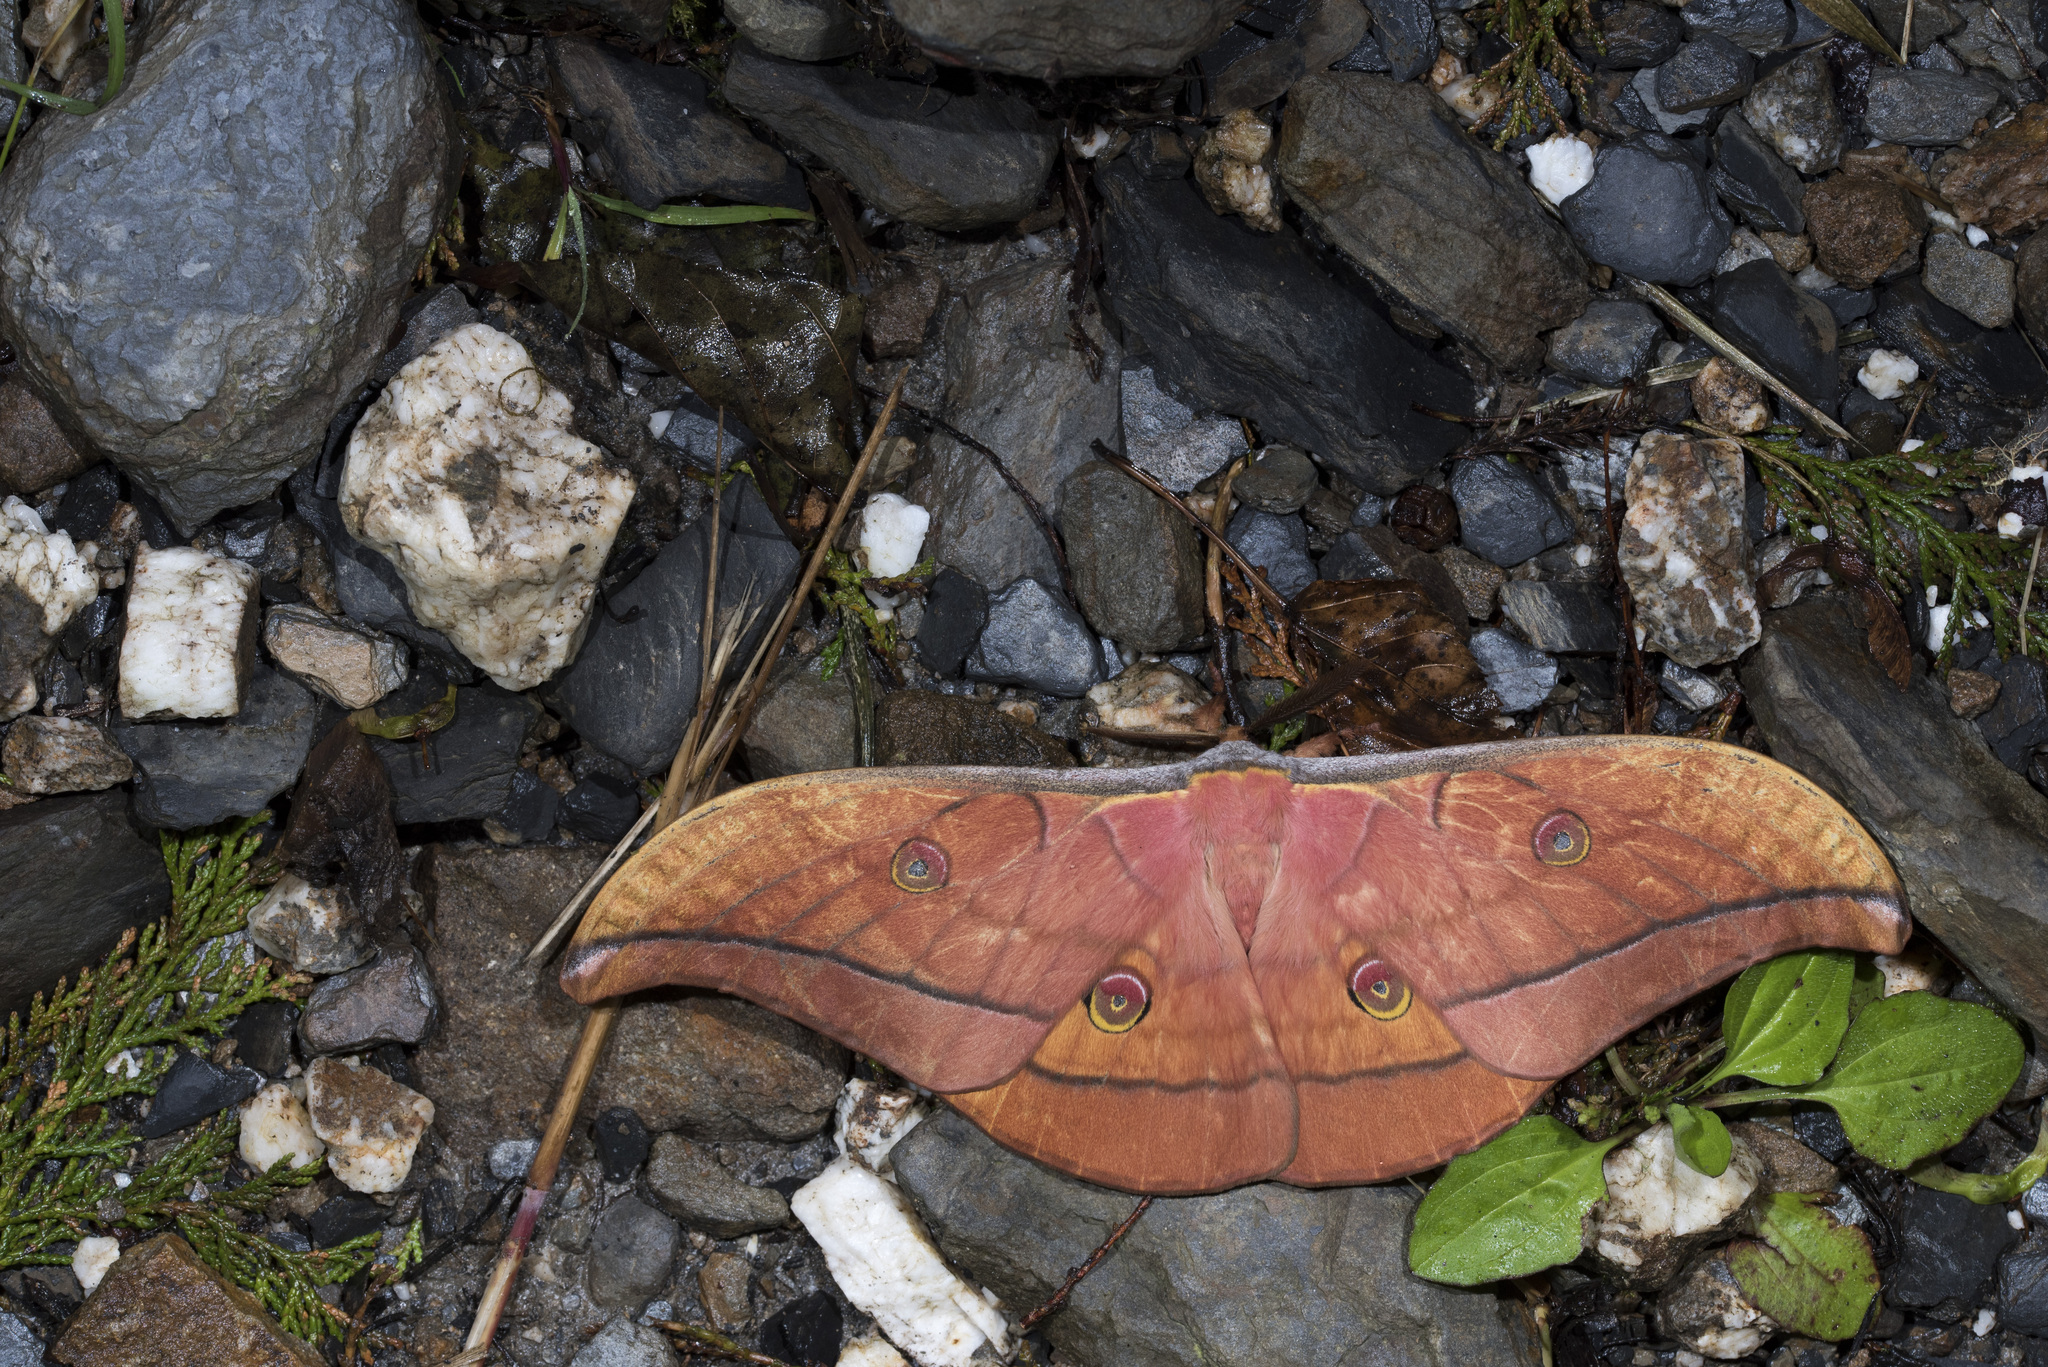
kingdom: Animalia
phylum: Arthropoda
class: Insecta
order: Lepidoptera
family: Saturniidae
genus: Antheraea
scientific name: Antheraea superba
